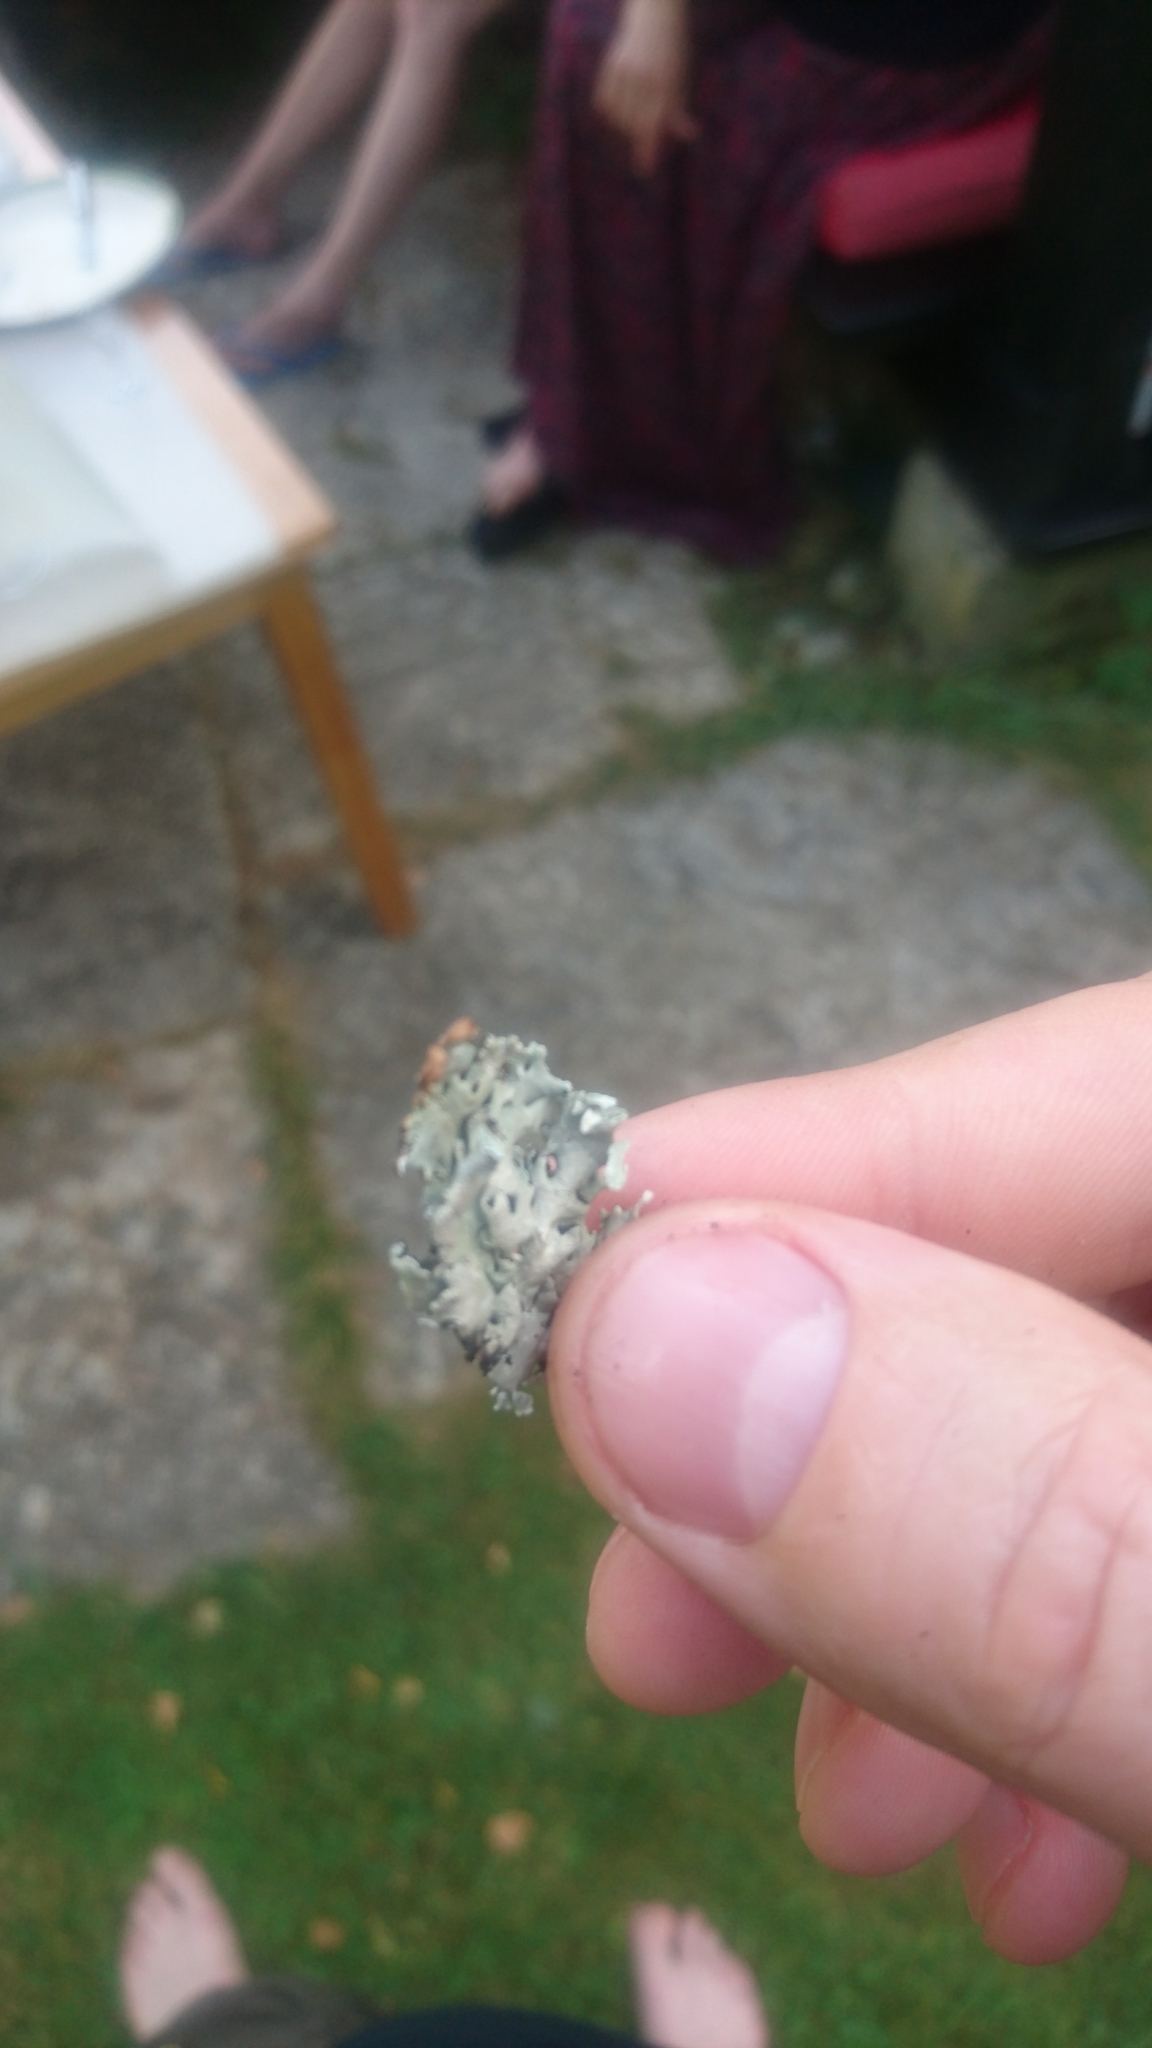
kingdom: Fungi
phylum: Ascomycota
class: Lecanoromycetes
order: Lecanorales
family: Parmeliaceae
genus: Hypogymnia
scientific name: Hypogymnia physodes
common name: Dark crottle
